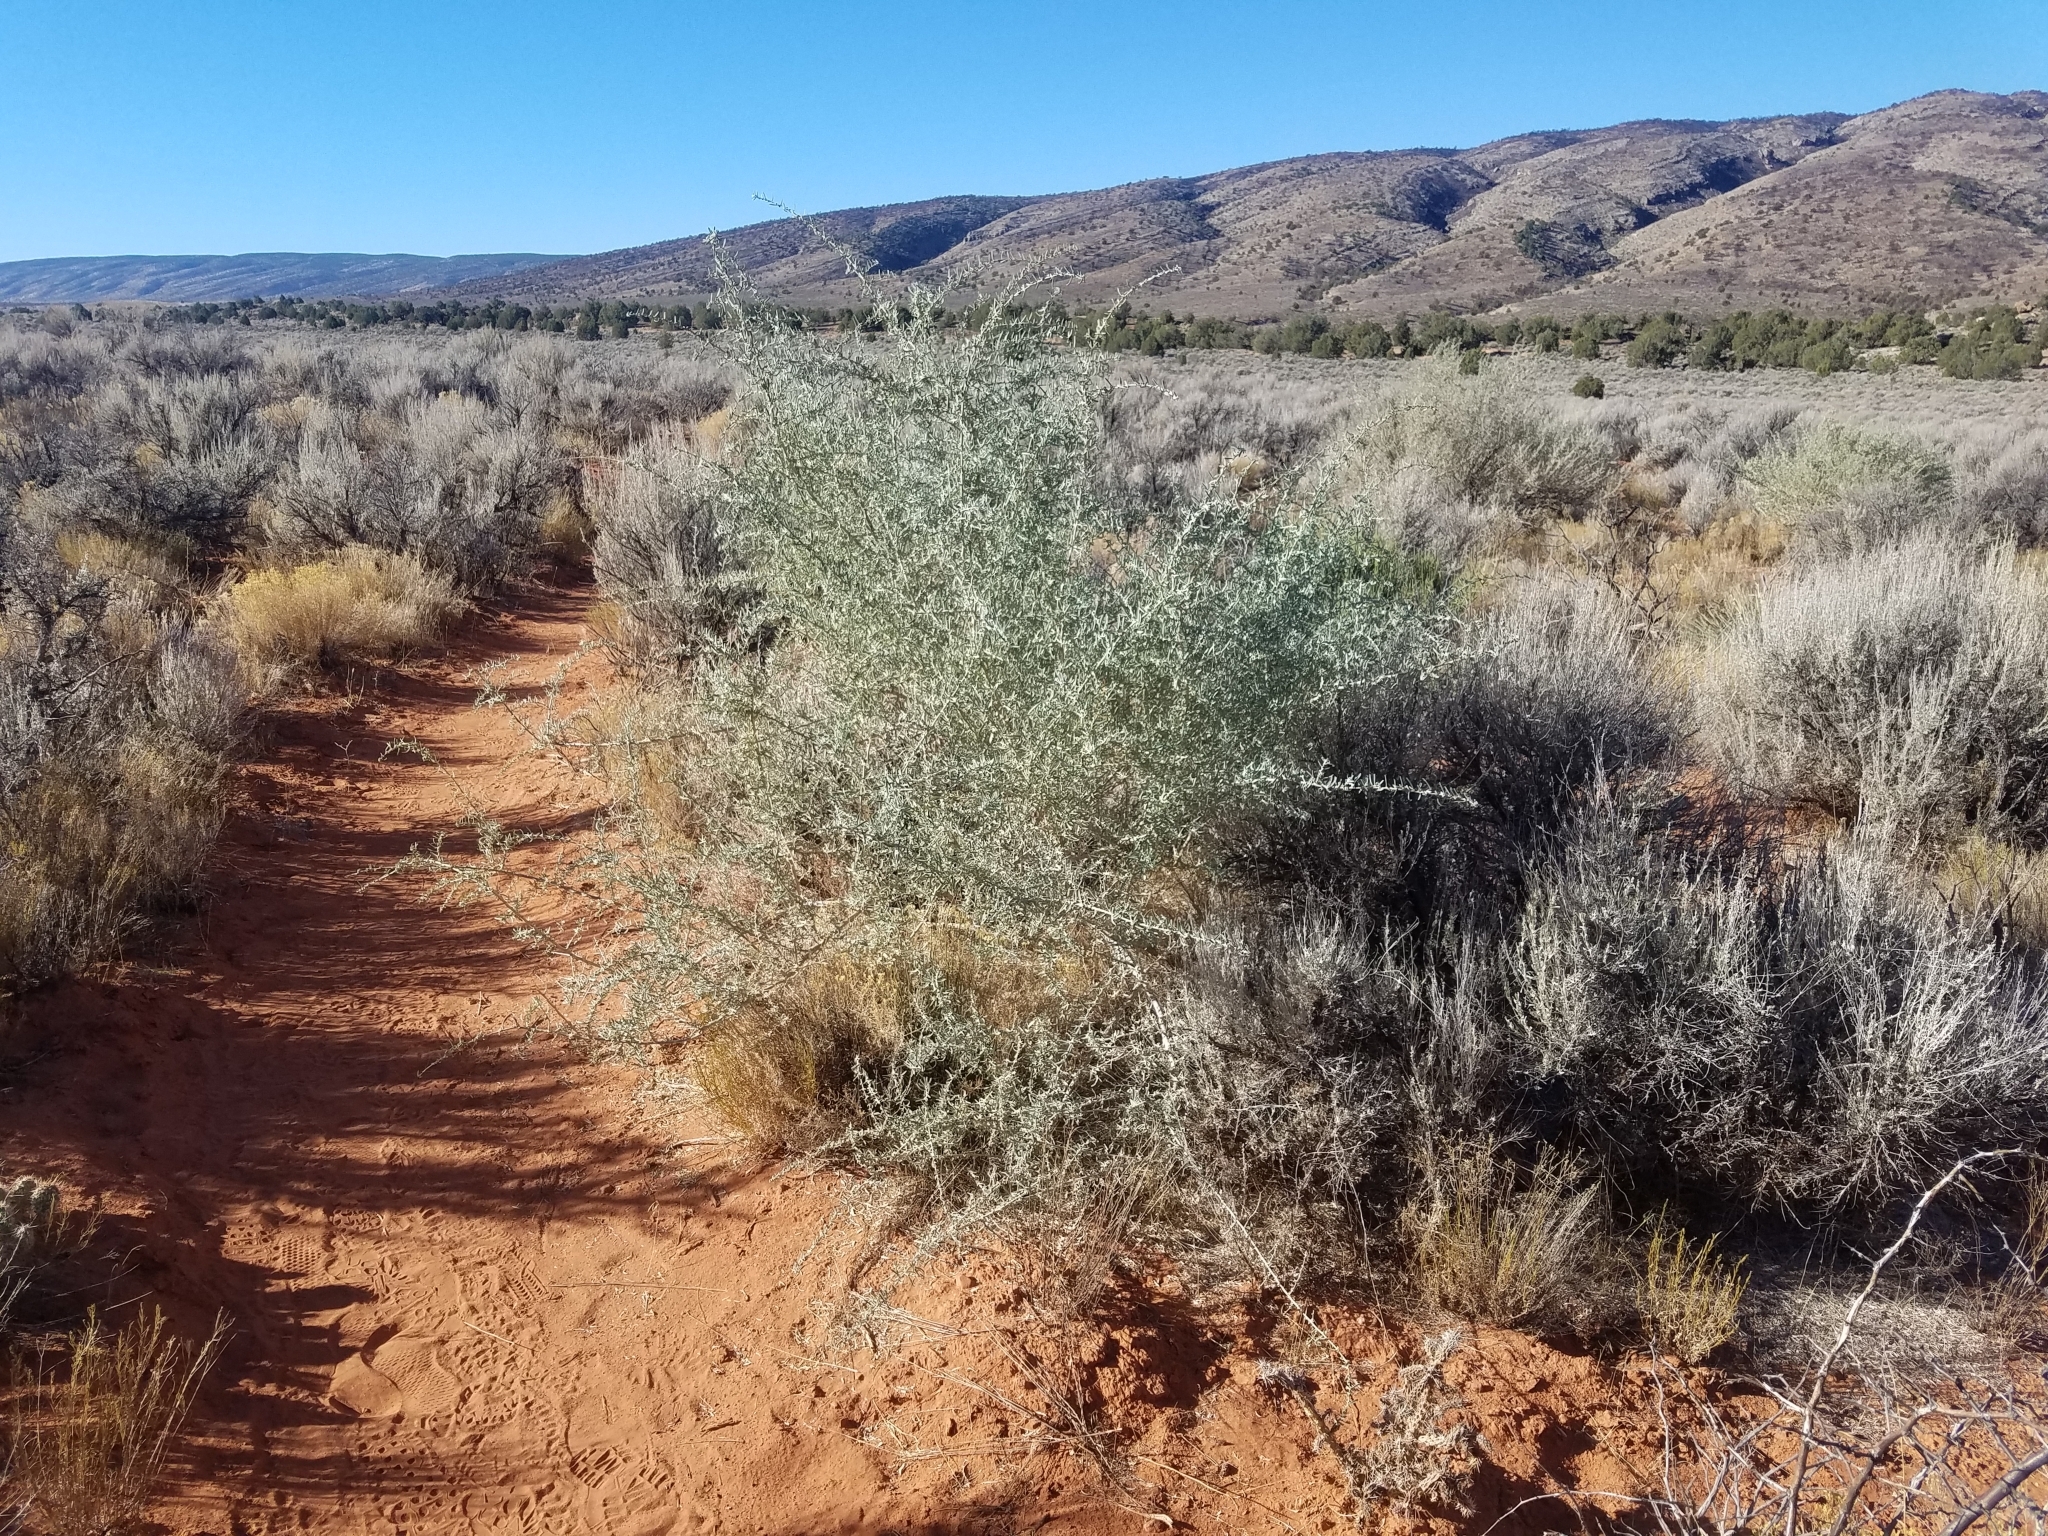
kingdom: Plantae
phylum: Tracheophyta
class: Magnoliopsida
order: Caryophyllales
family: Amaranthaceae
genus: Atriplex
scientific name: Atriplex canescens
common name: Four-wing saltbush
